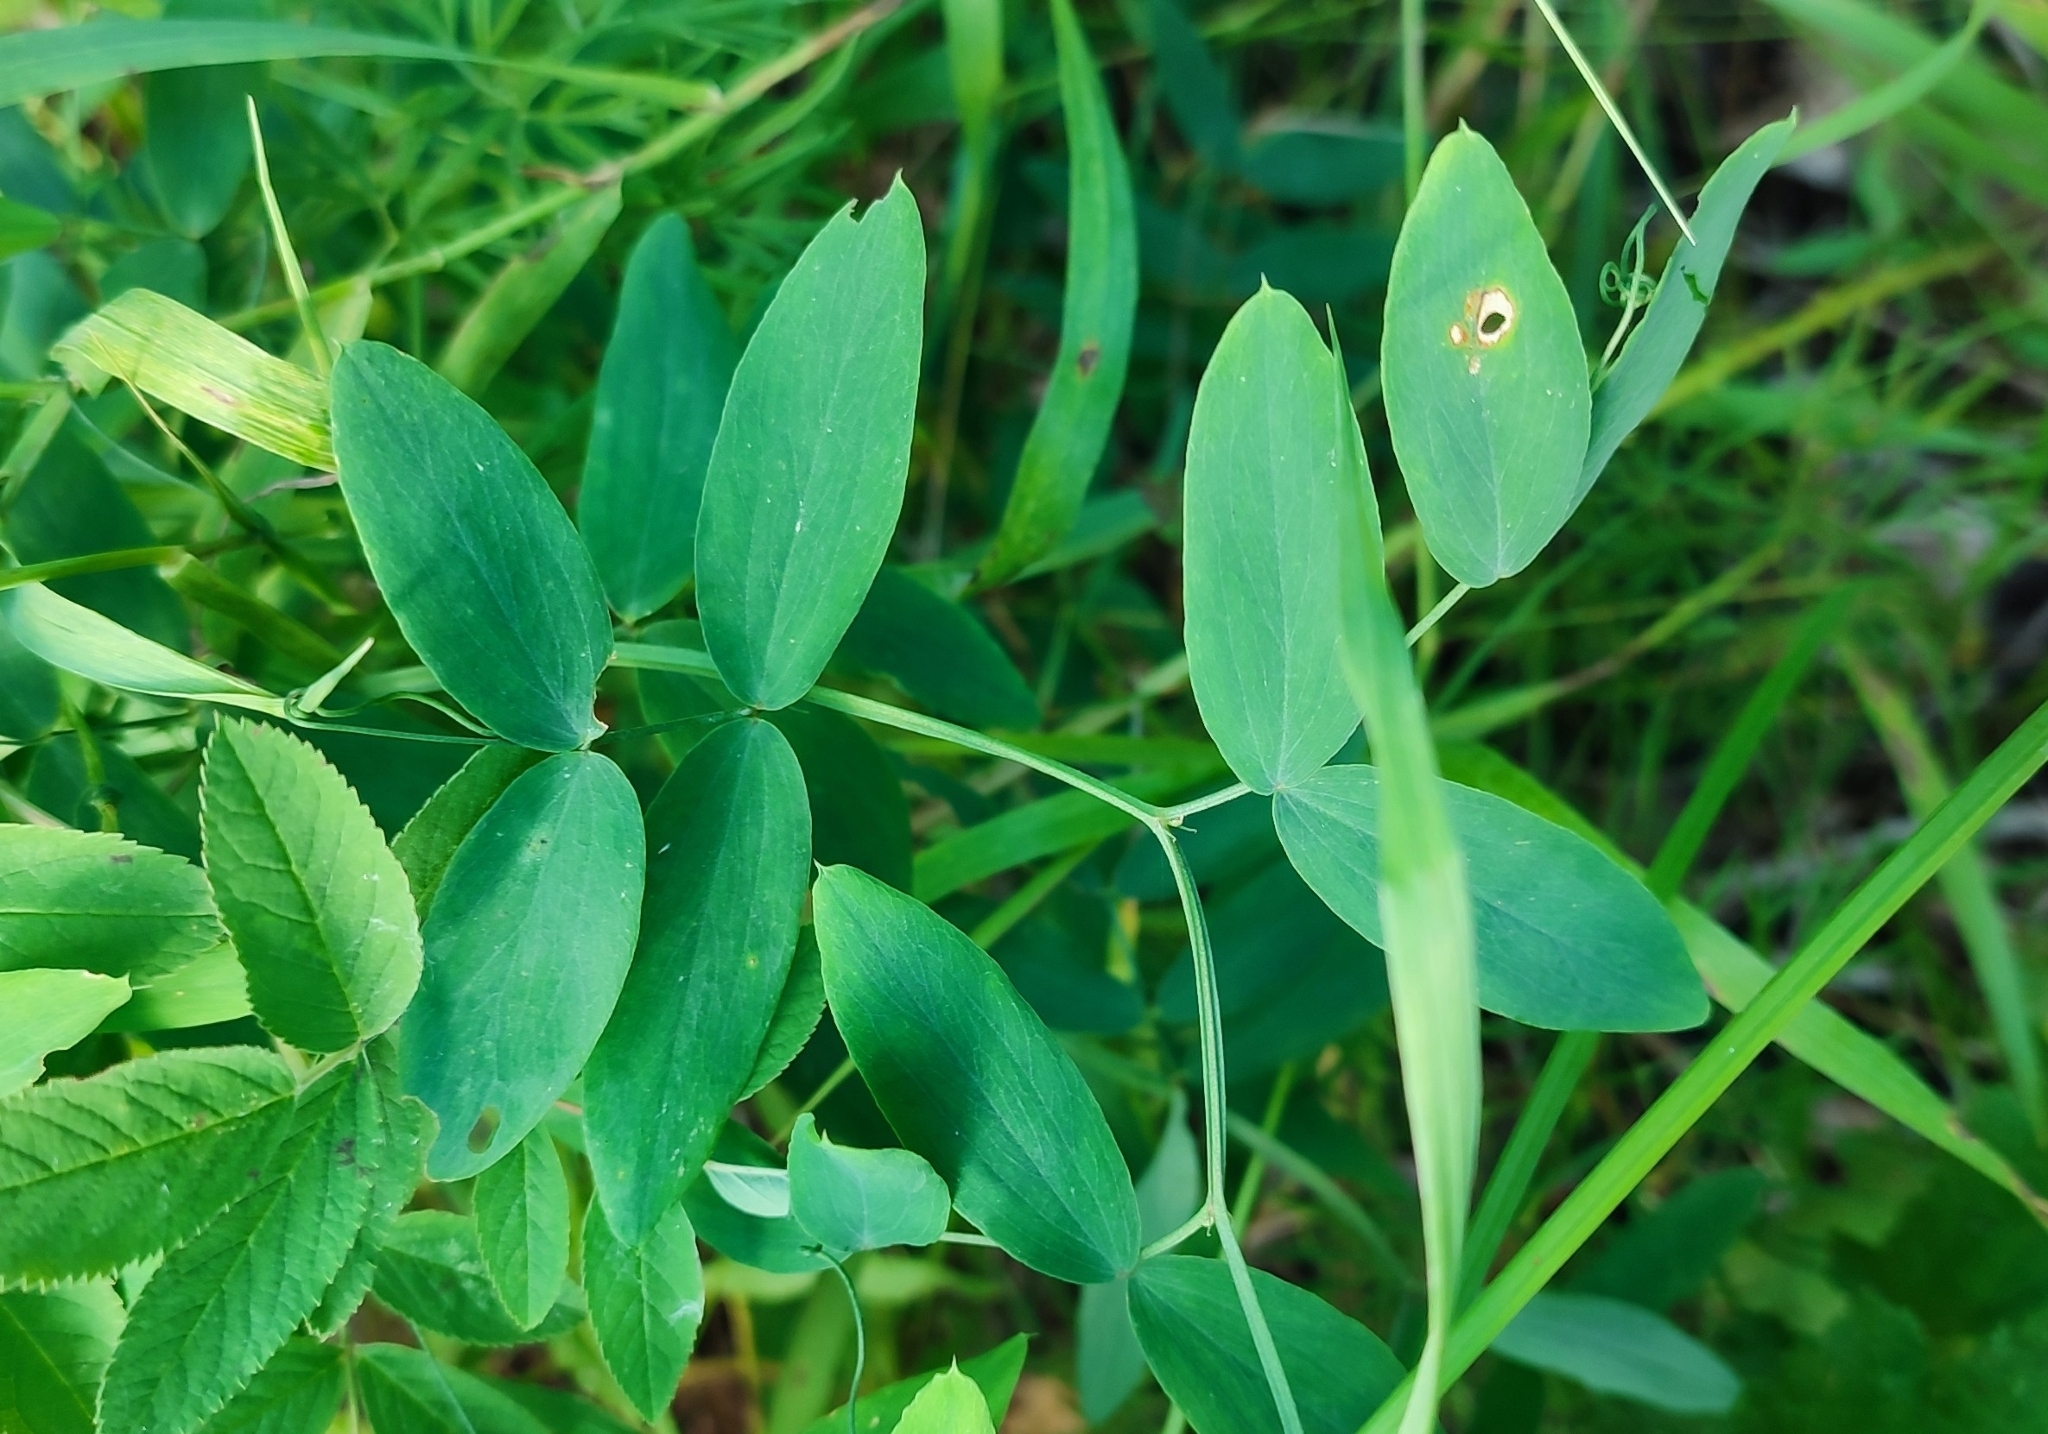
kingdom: Plantae
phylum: Tracheophyta
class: Magnoliopsida
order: Fabales
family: Fabaceae
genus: Lathyrus
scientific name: Lathyrus palustris
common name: Marsh pea
